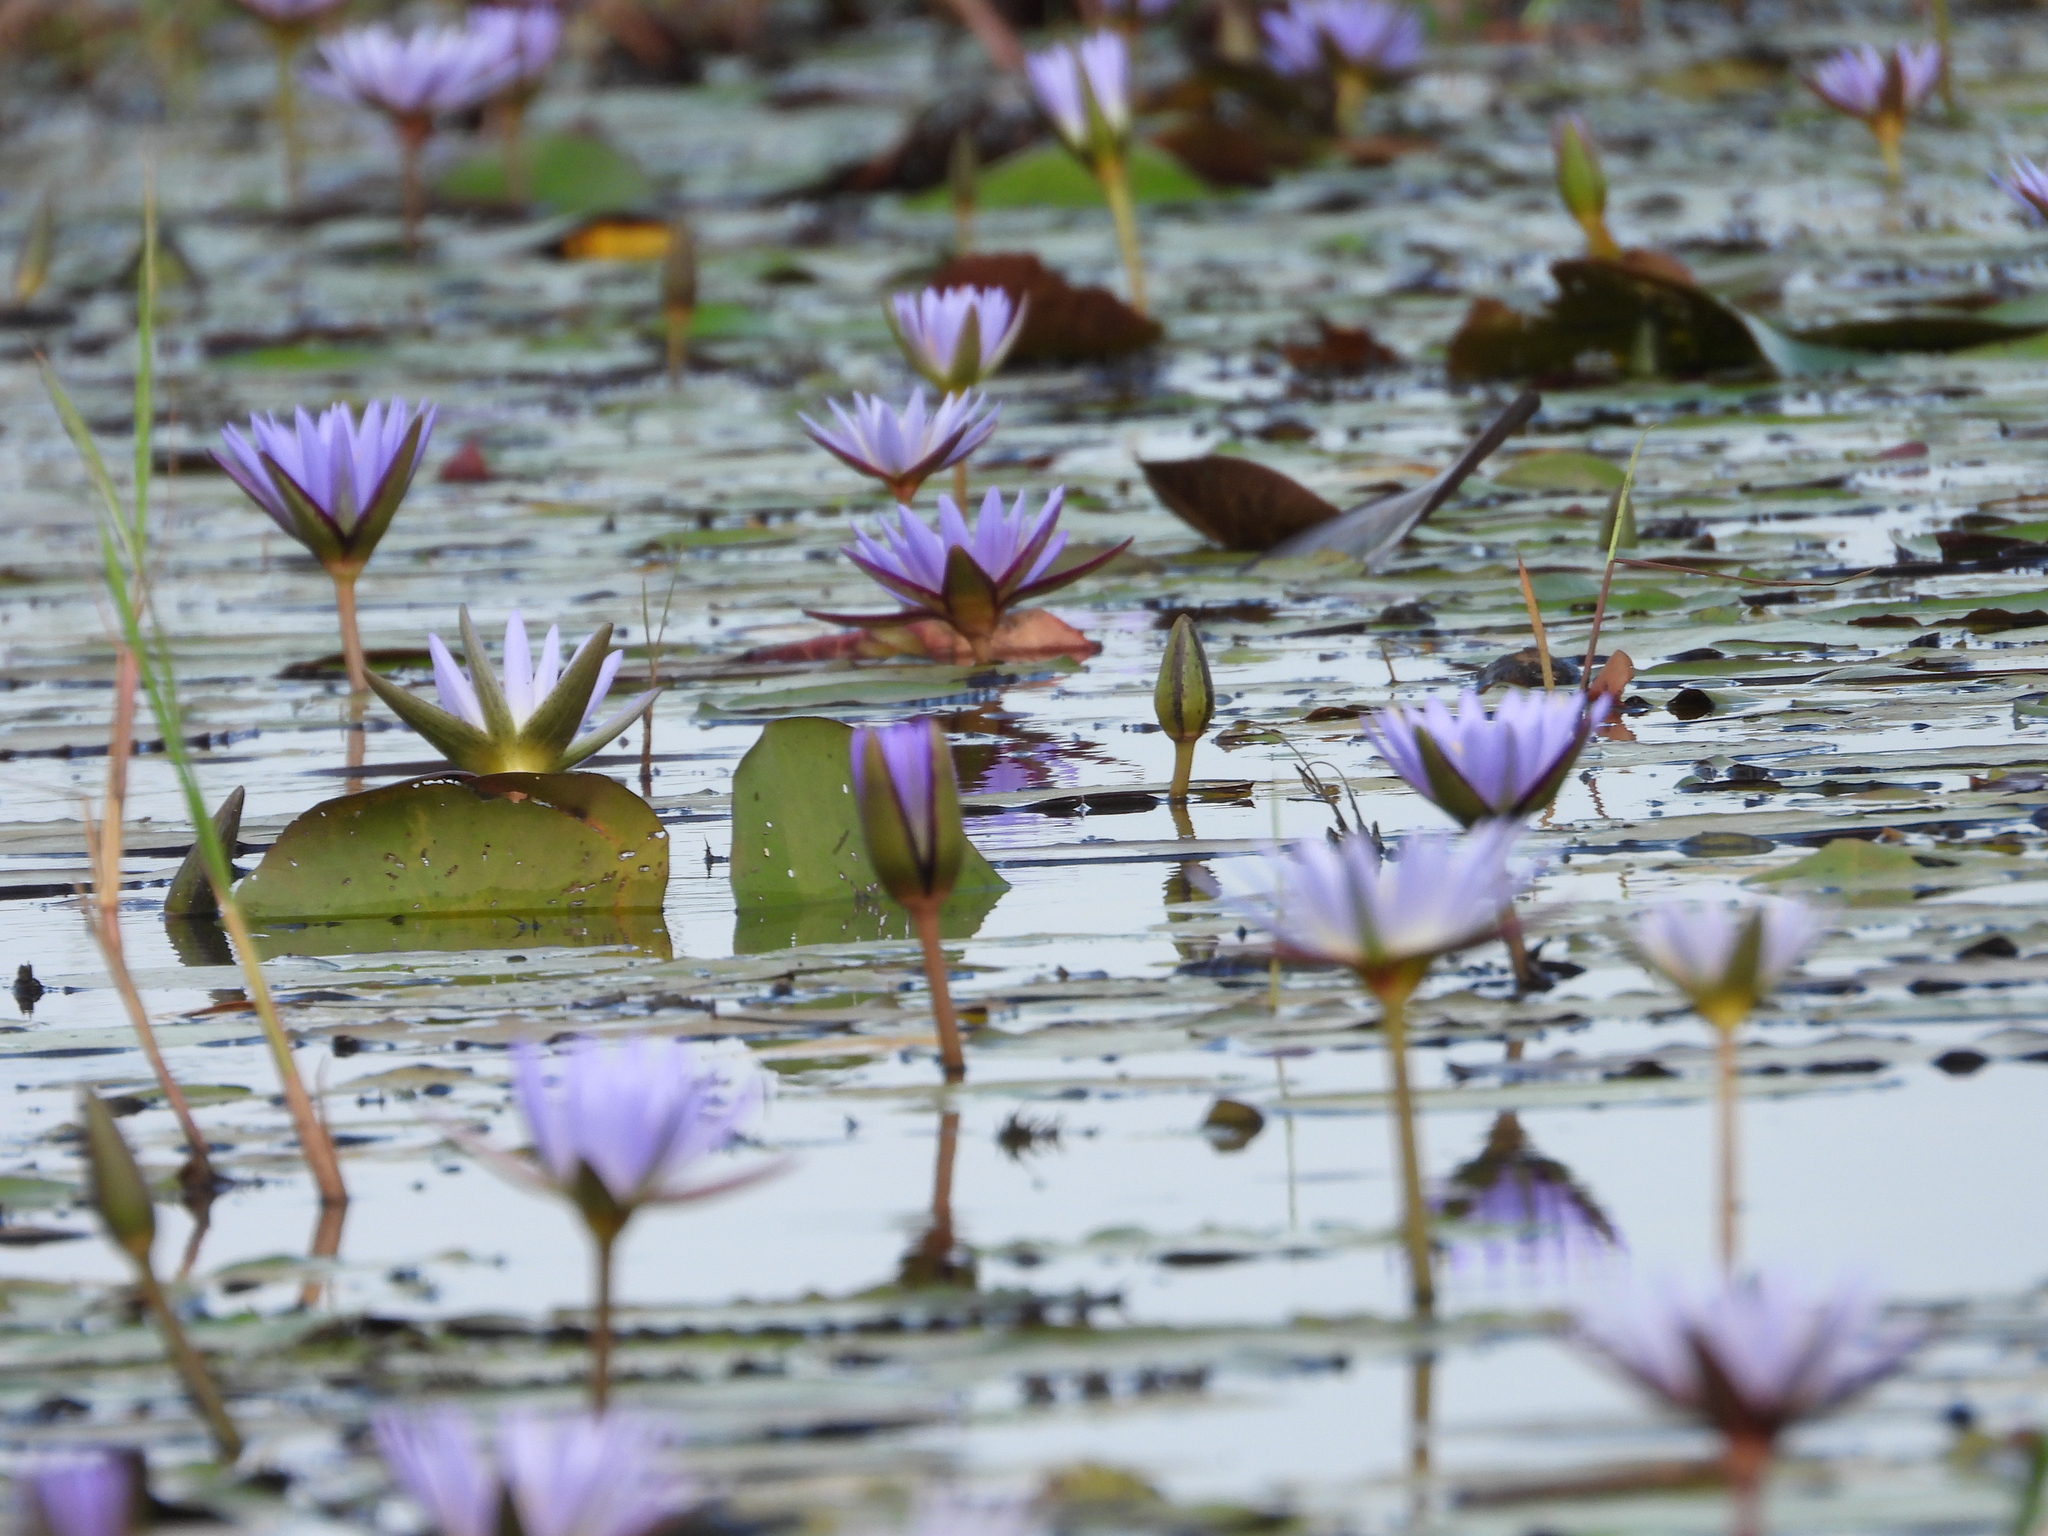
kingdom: Plantae
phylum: Tracheophyta
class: Magnoliopsida
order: Nymphaeales
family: Nymphaeaceae
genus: Nymphaea
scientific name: Nymphaea nouchali
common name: Blue lotus
